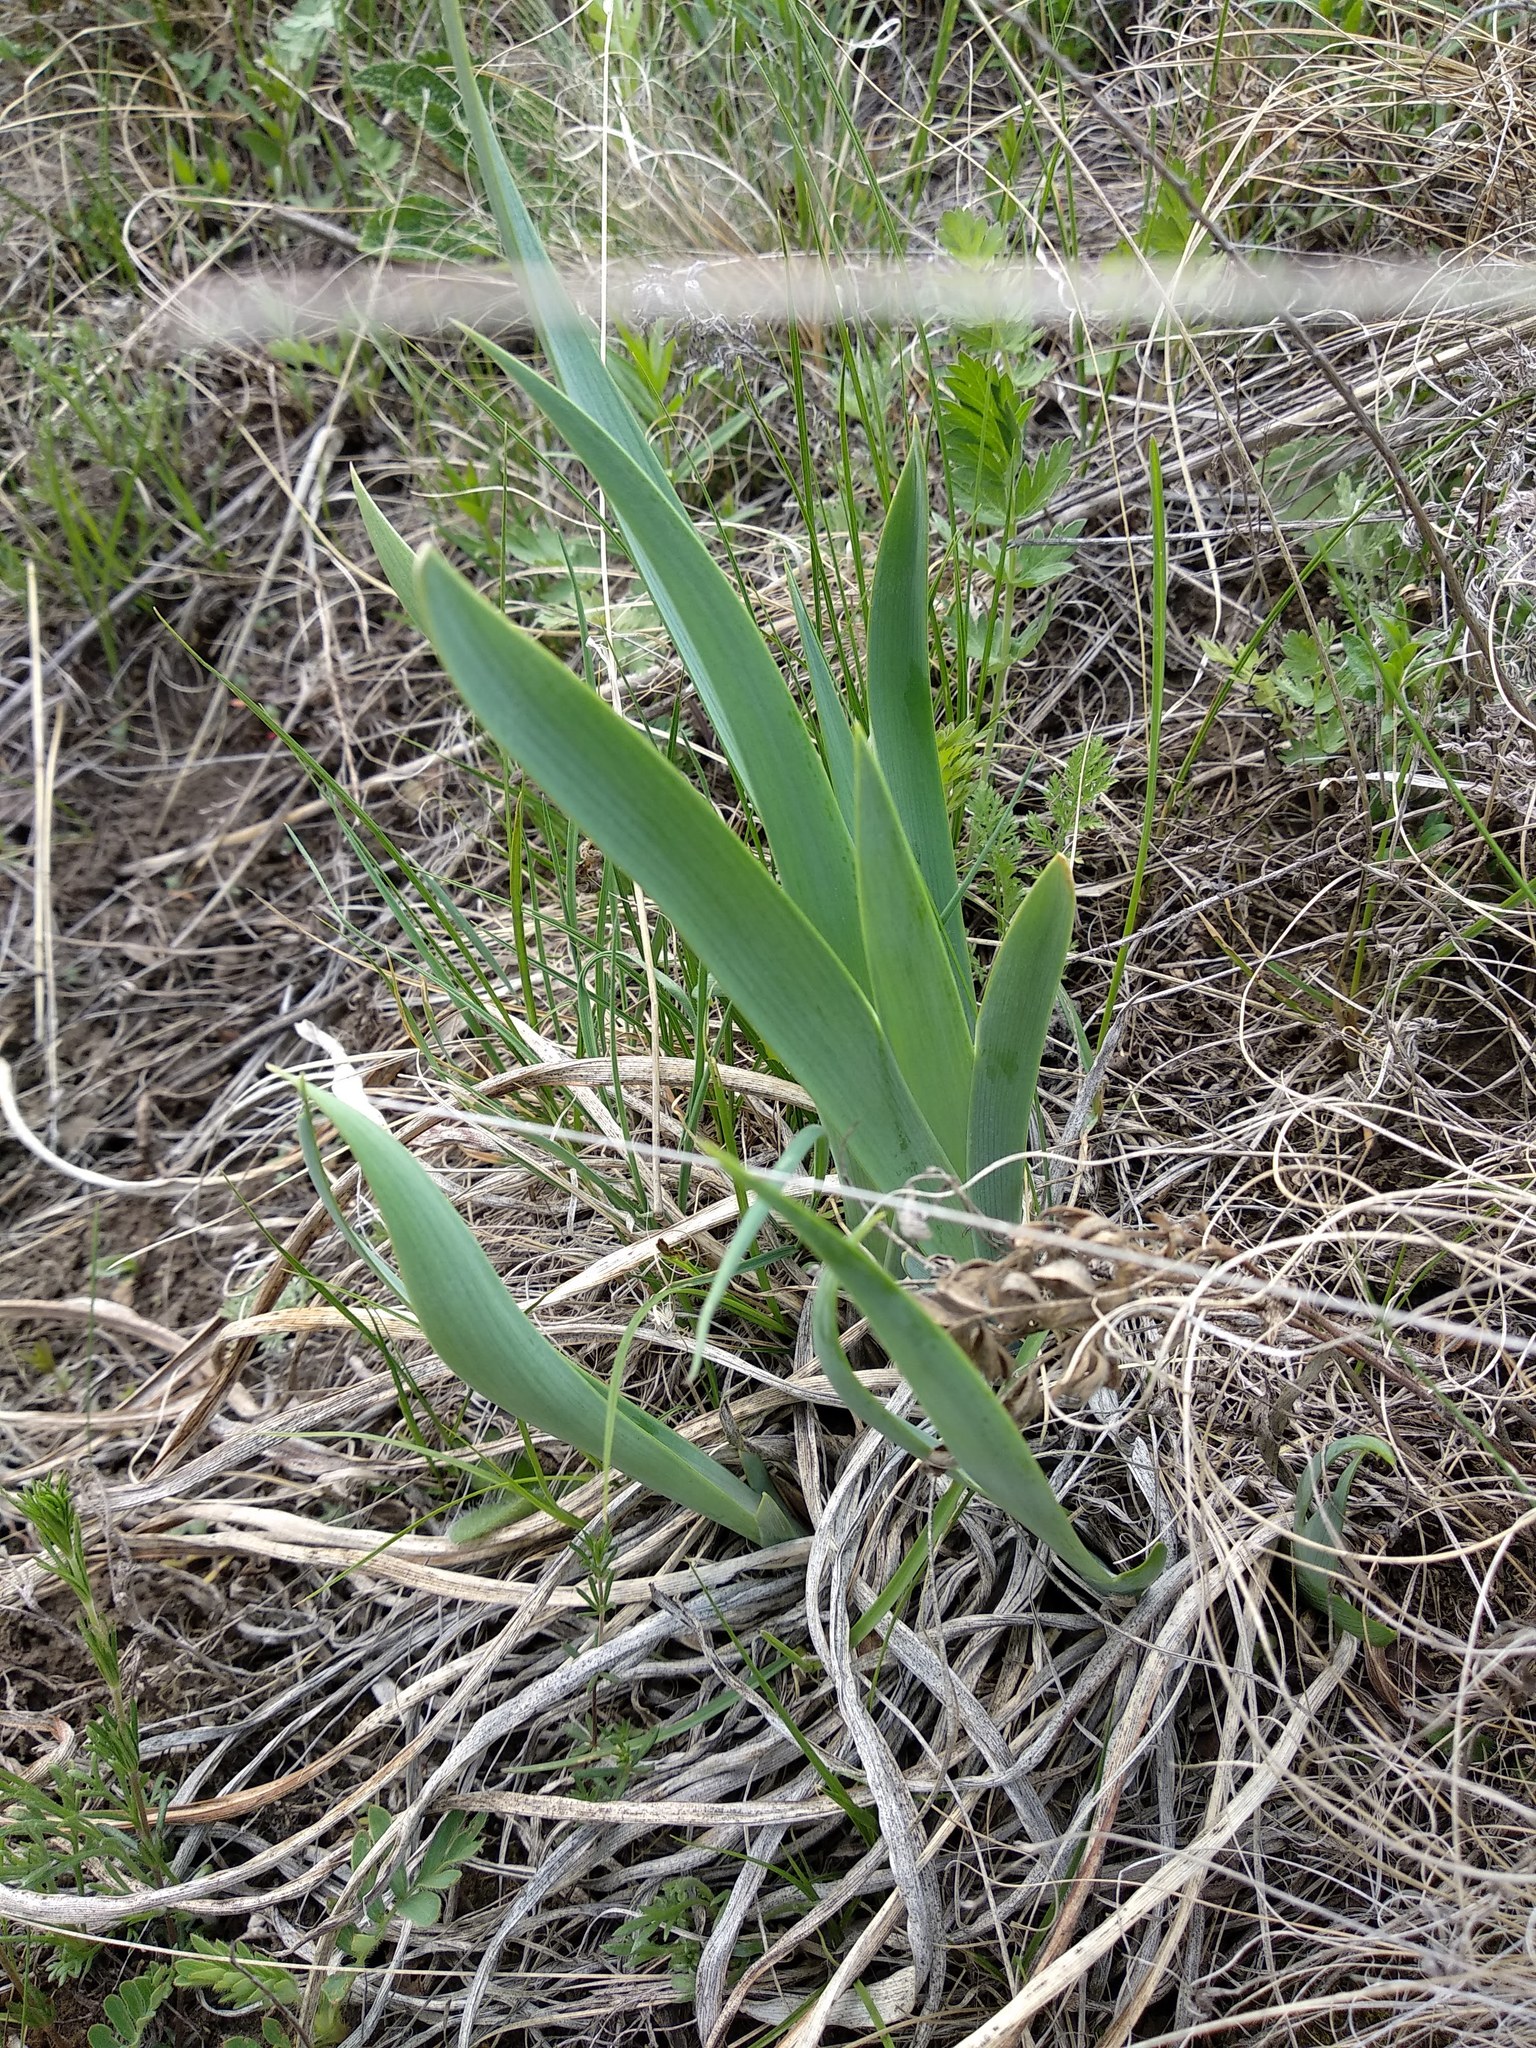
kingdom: Plantae
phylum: Tracheophyta
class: Liliopsida
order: Asparagales
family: Iridaceae
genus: Iris
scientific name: Iris humilis
